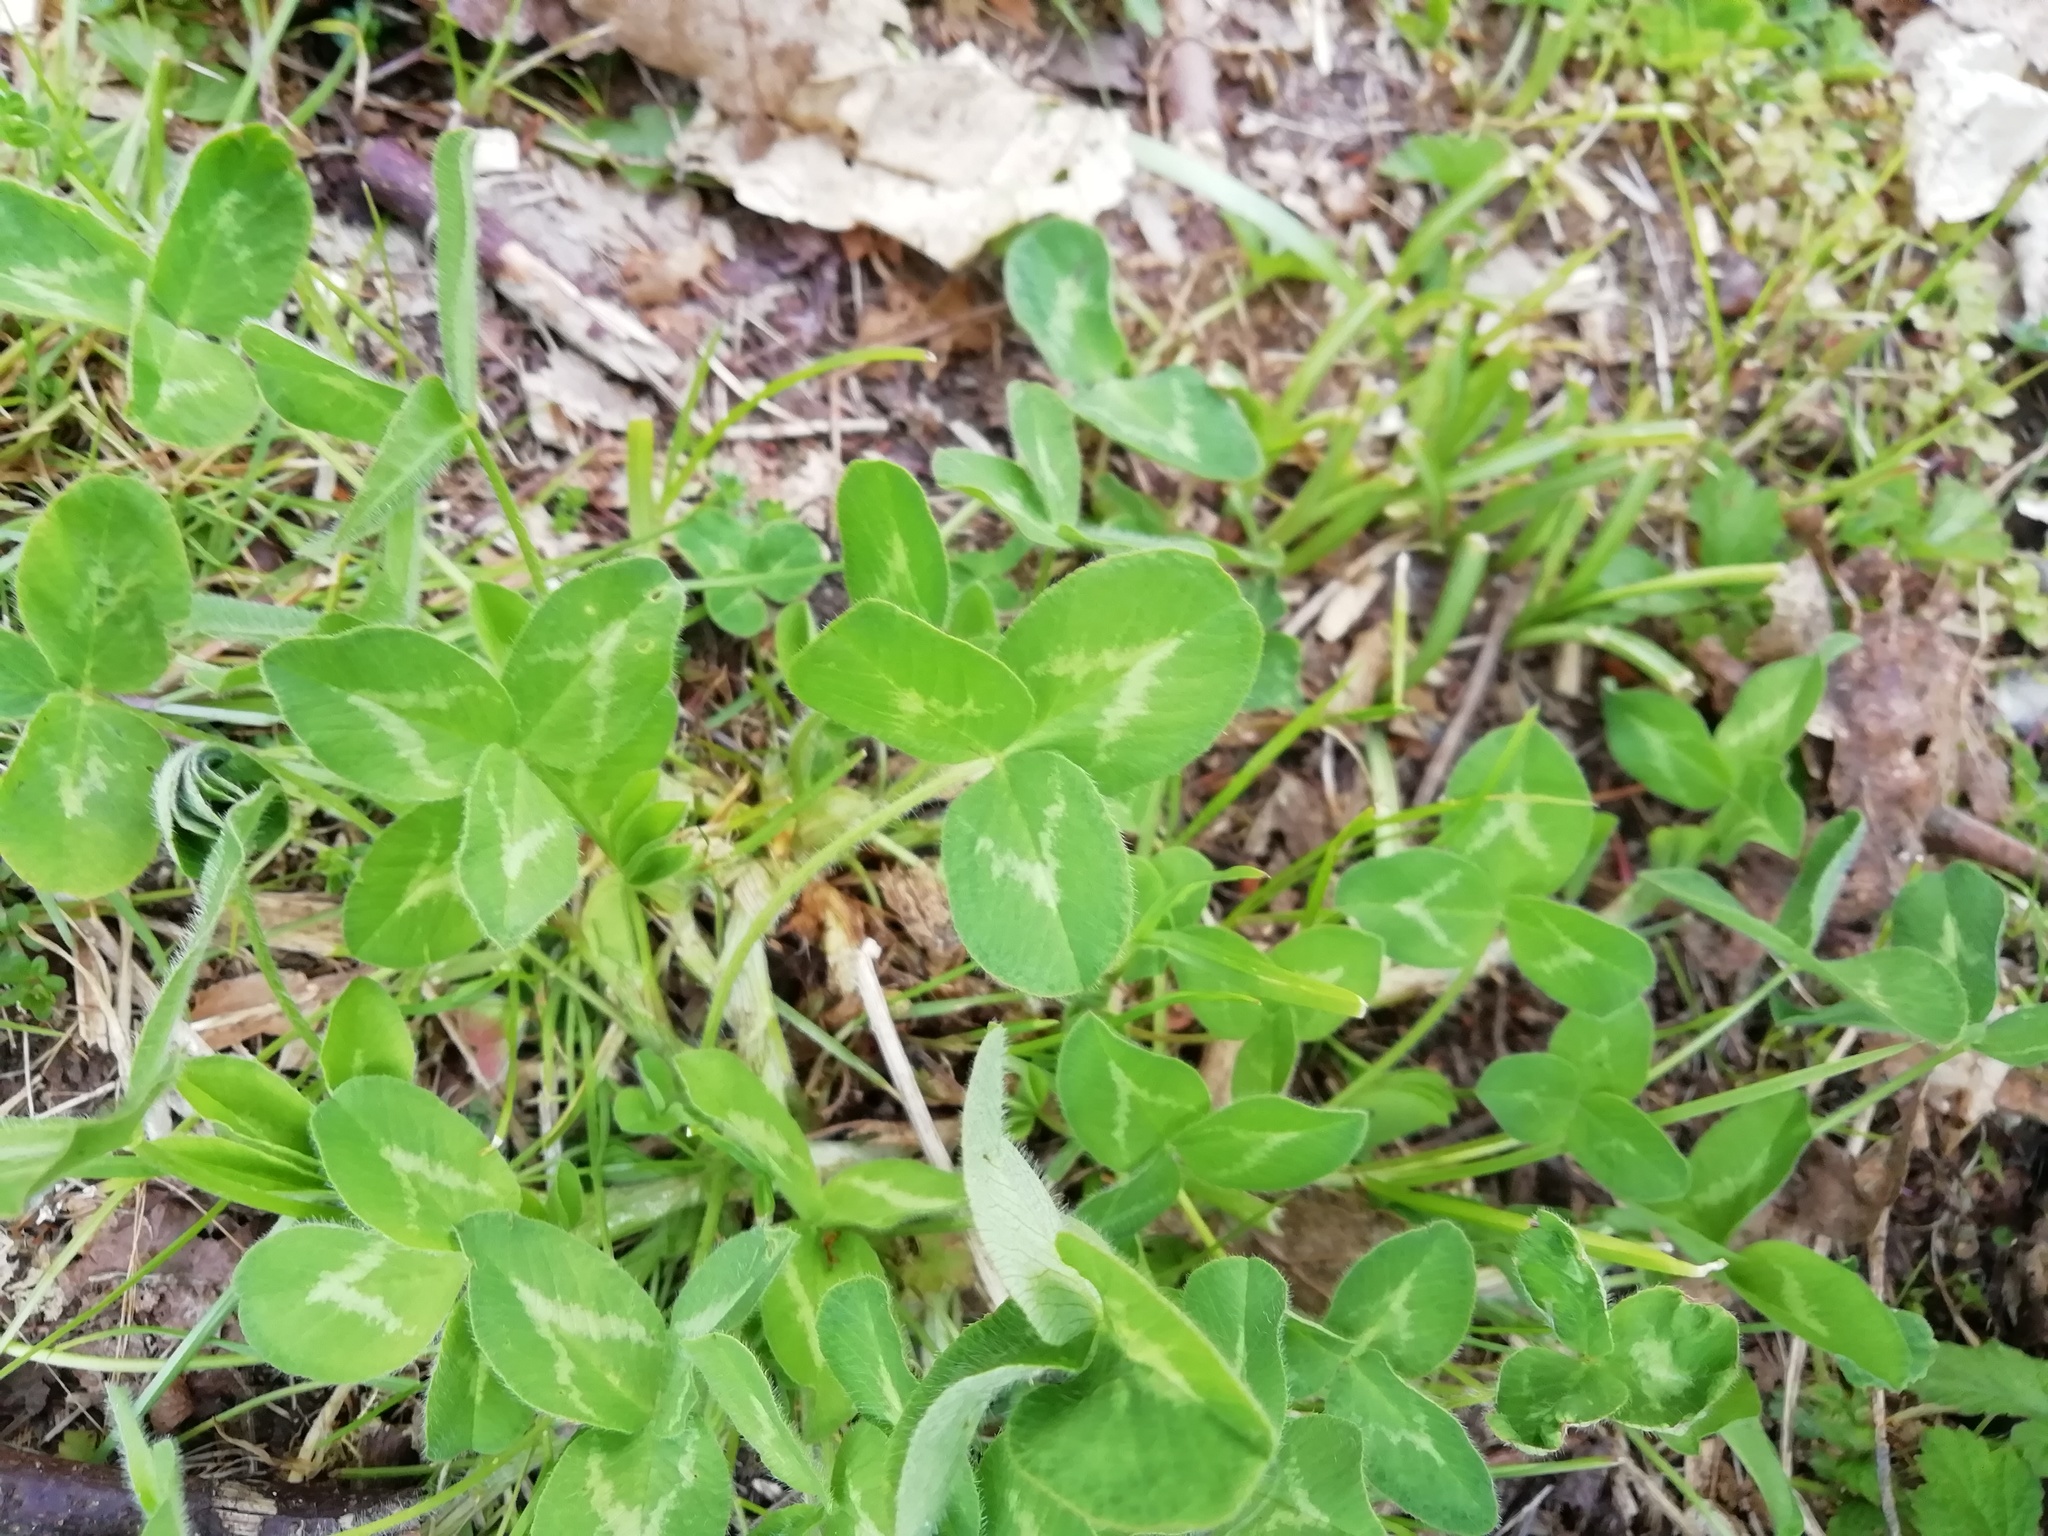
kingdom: Plantae
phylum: Tracheophyta
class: Magnoliopsida
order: Fabales
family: Fabaceae
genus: Trifolium
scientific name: Trifolium pratense
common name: Red clover
